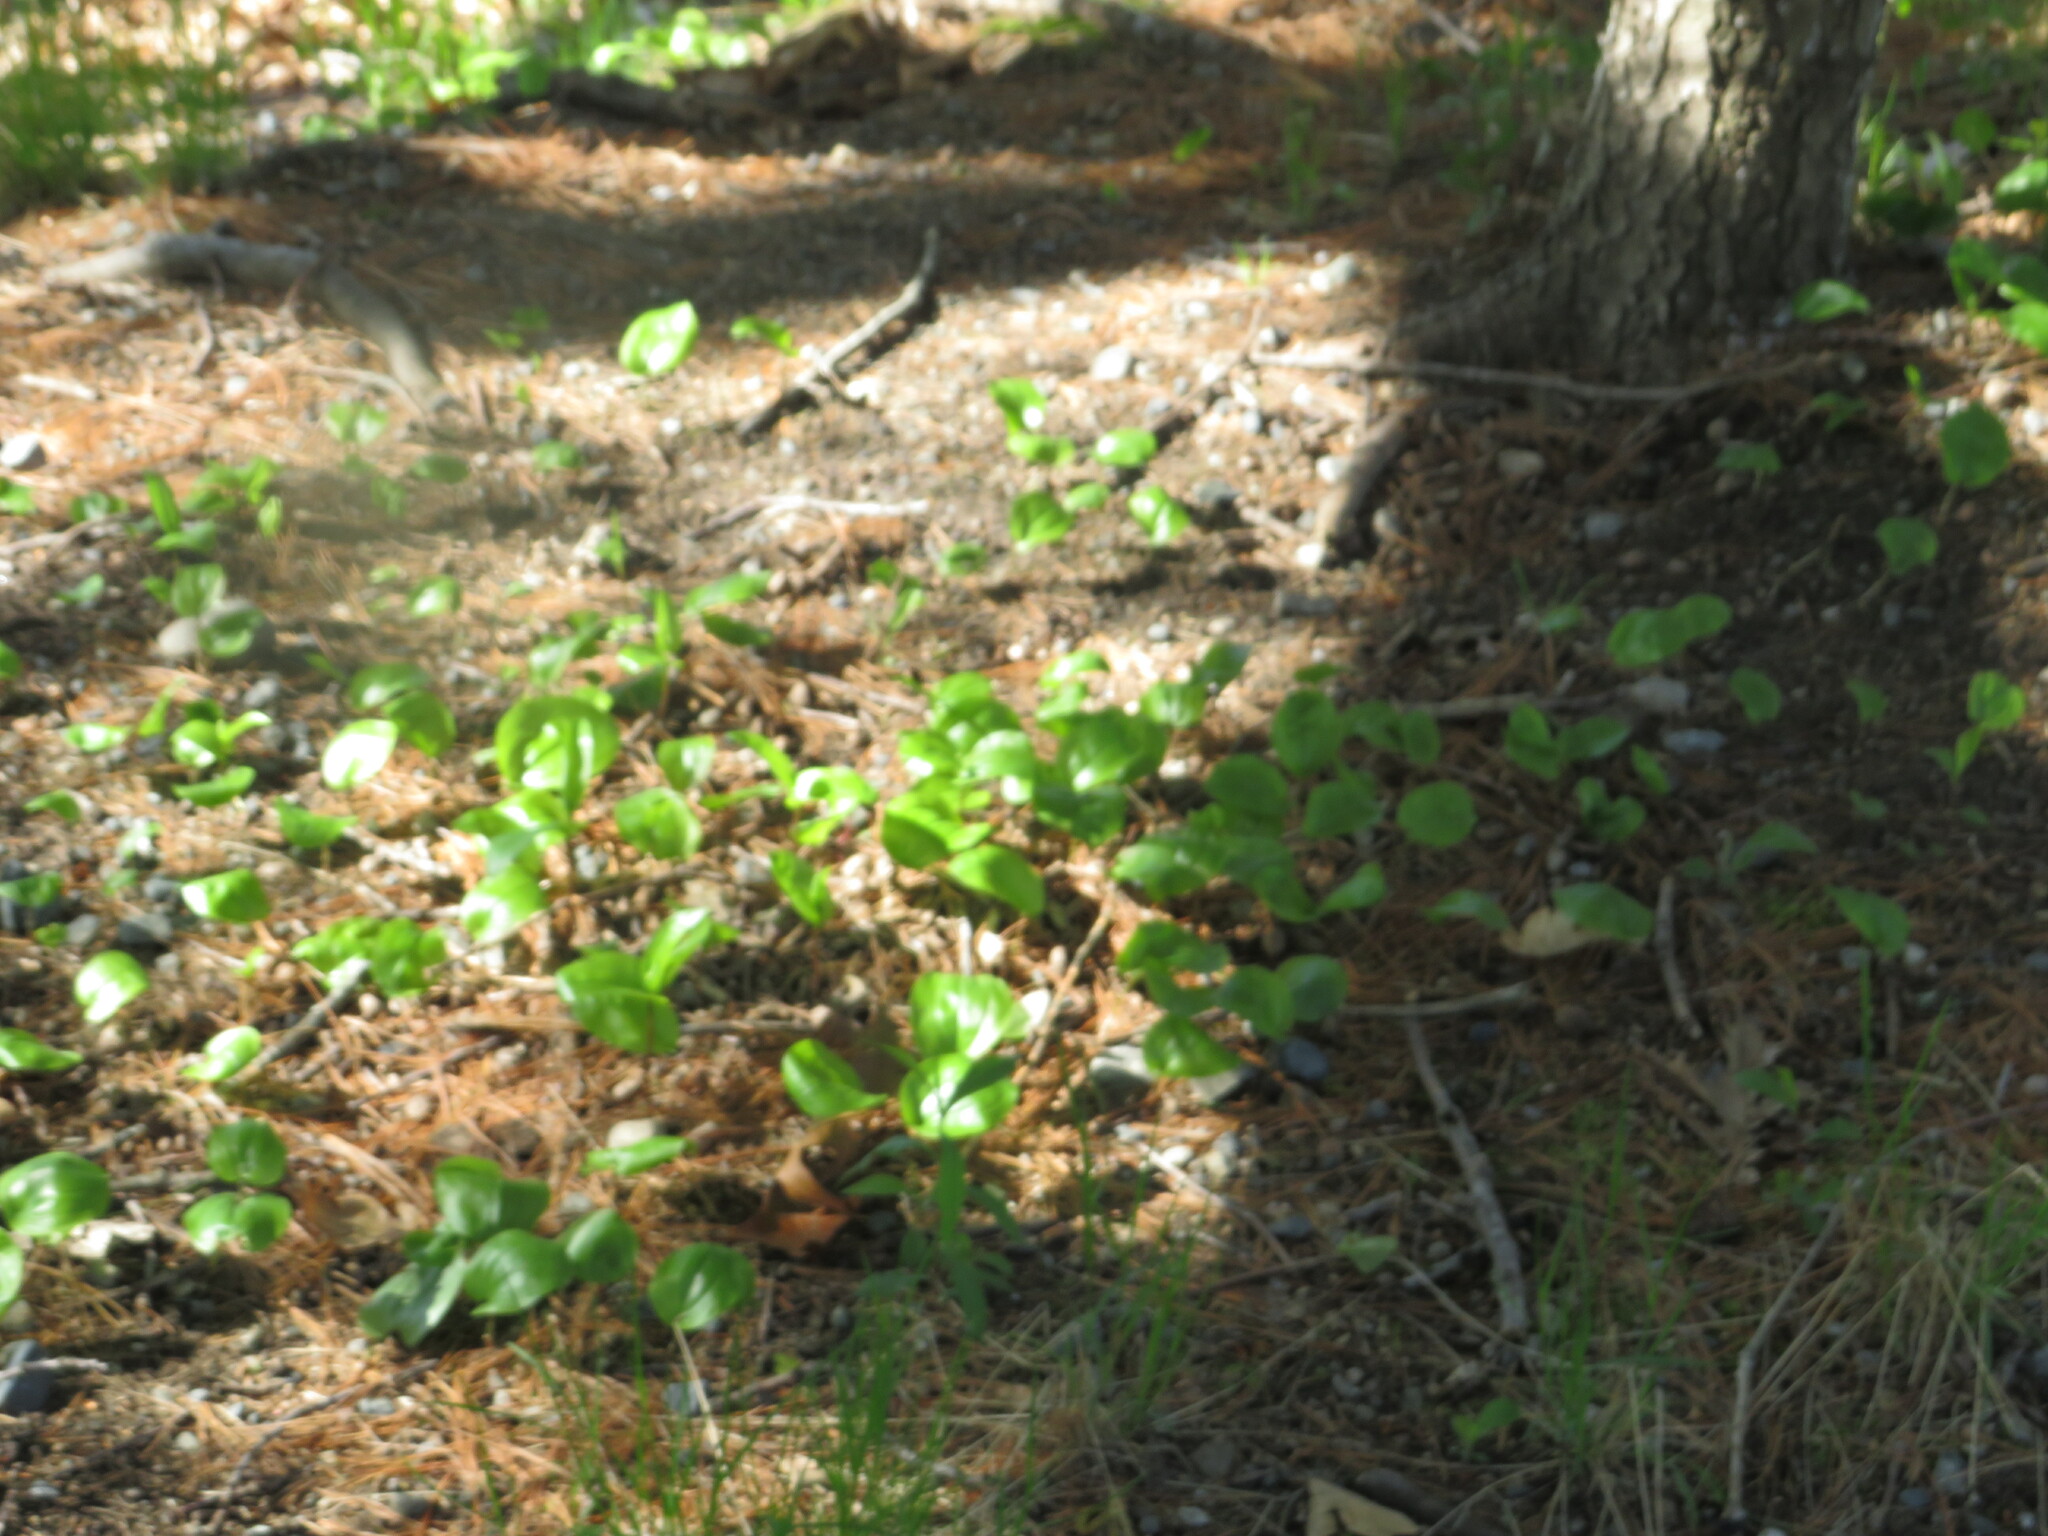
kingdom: Plantae
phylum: Tracheophyta
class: Liliopsida
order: Asparagales
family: Asparagaceae
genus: Maianthemum
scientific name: Maianthemum canadense
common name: False lily-of-the-valley
